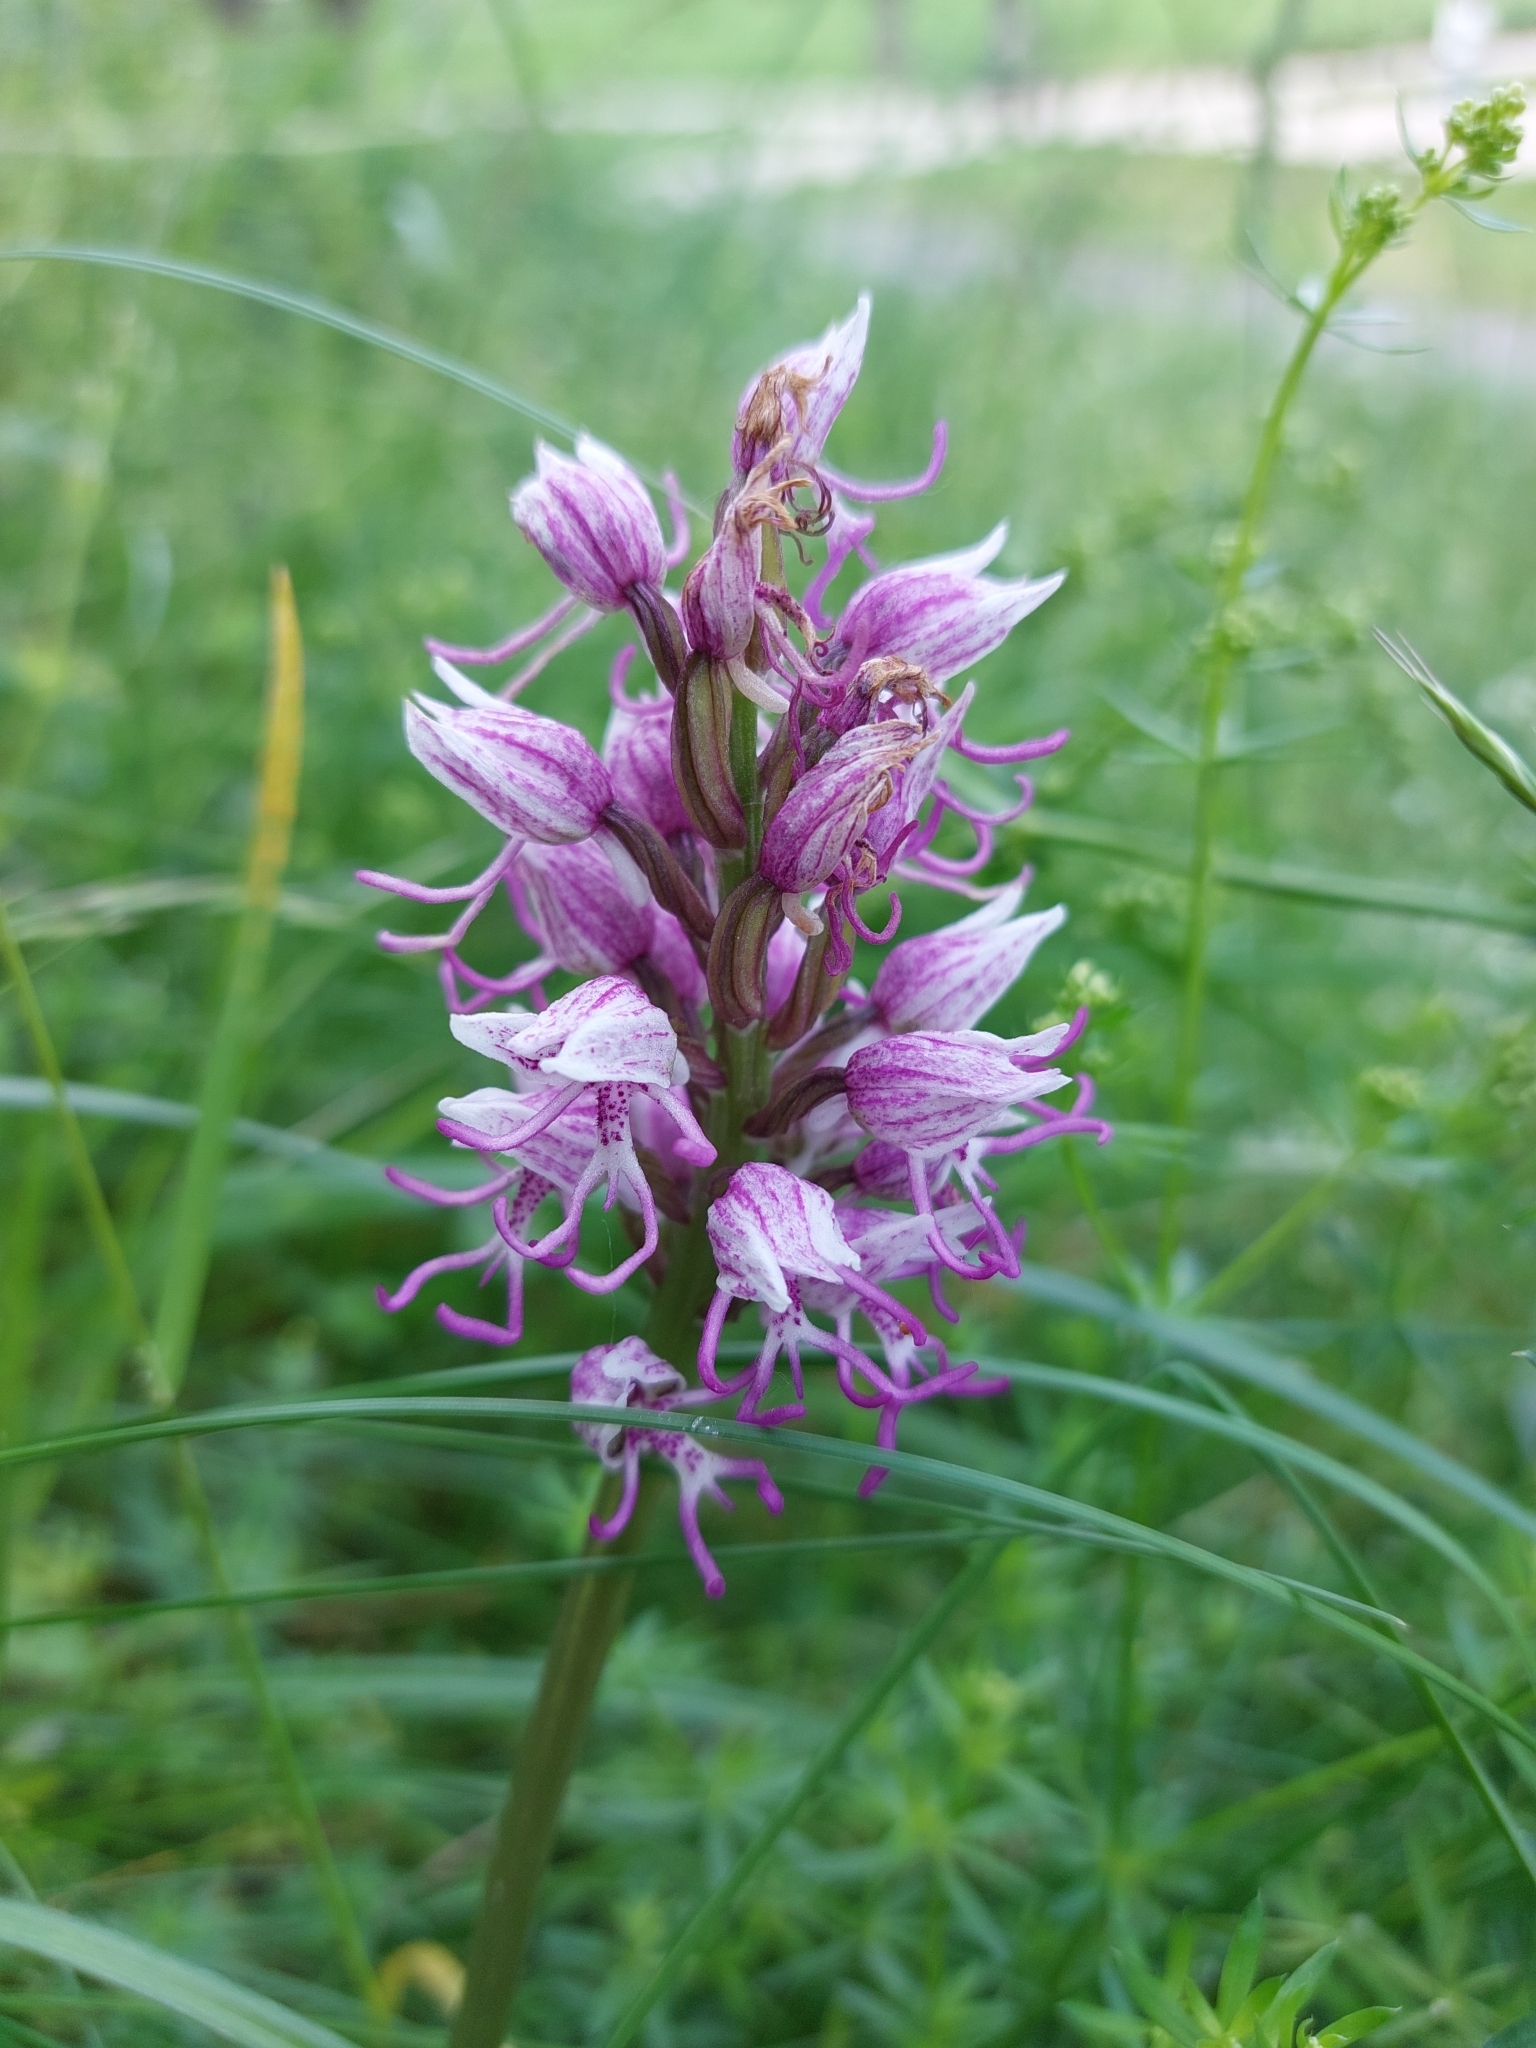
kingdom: Plantae
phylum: Tracheophyta
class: Liliopsida
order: Asparagales
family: Orchidaceae
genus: Orchis
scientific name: Orchis simia
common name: Monkey orchid
